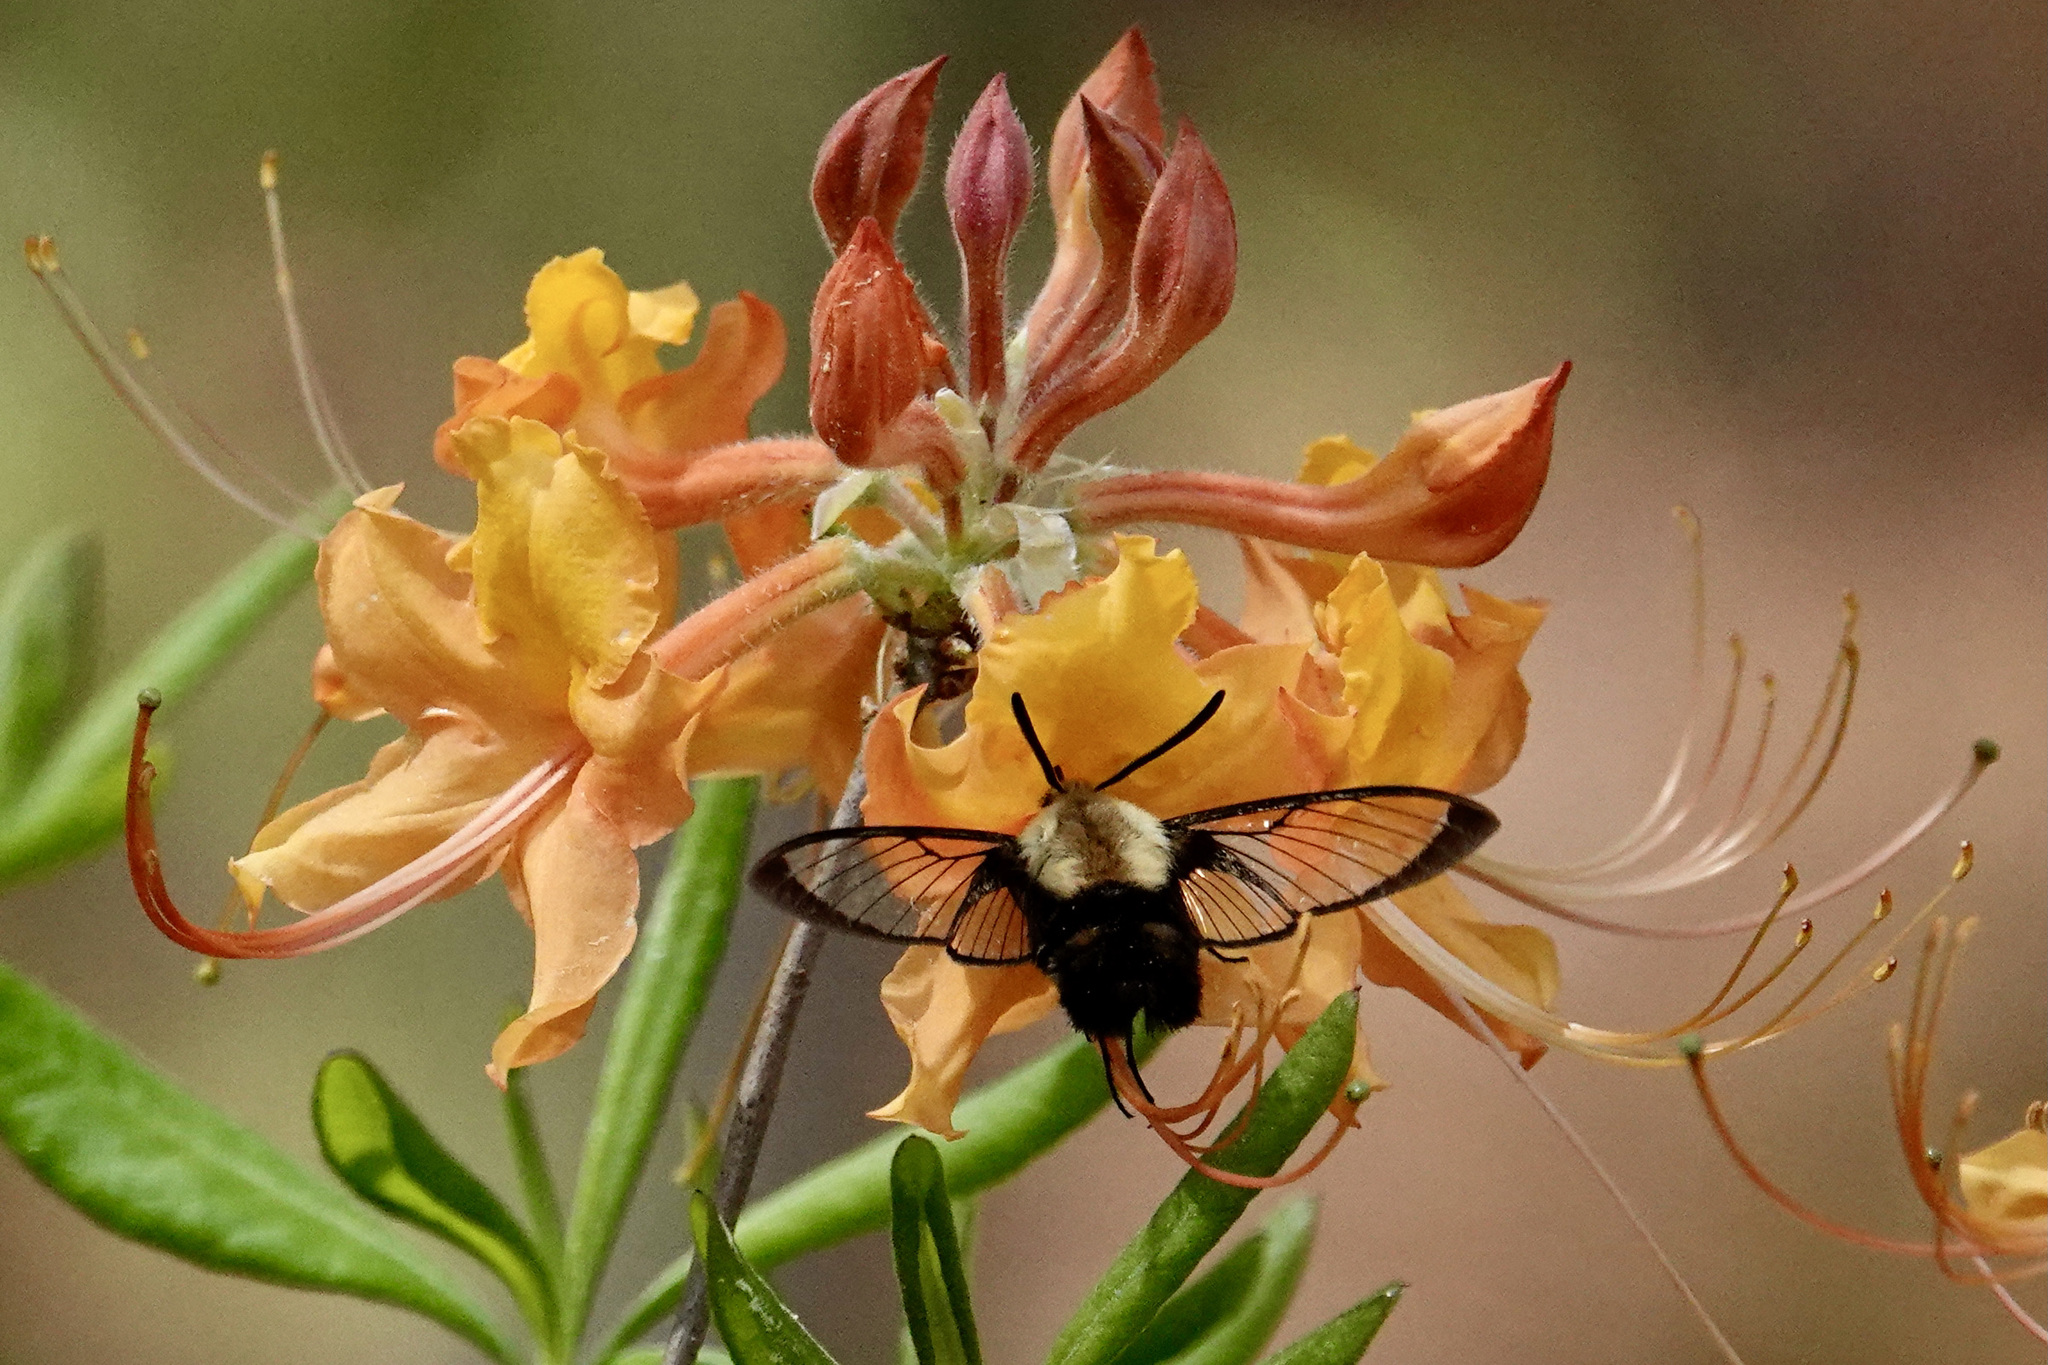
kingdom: Animalia
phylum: Arthropoda
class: Insecta
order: Lepidoptera
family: Sphingidae
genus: Hemaris
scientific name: Hemaris diffinis
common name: Bumblebee moth
